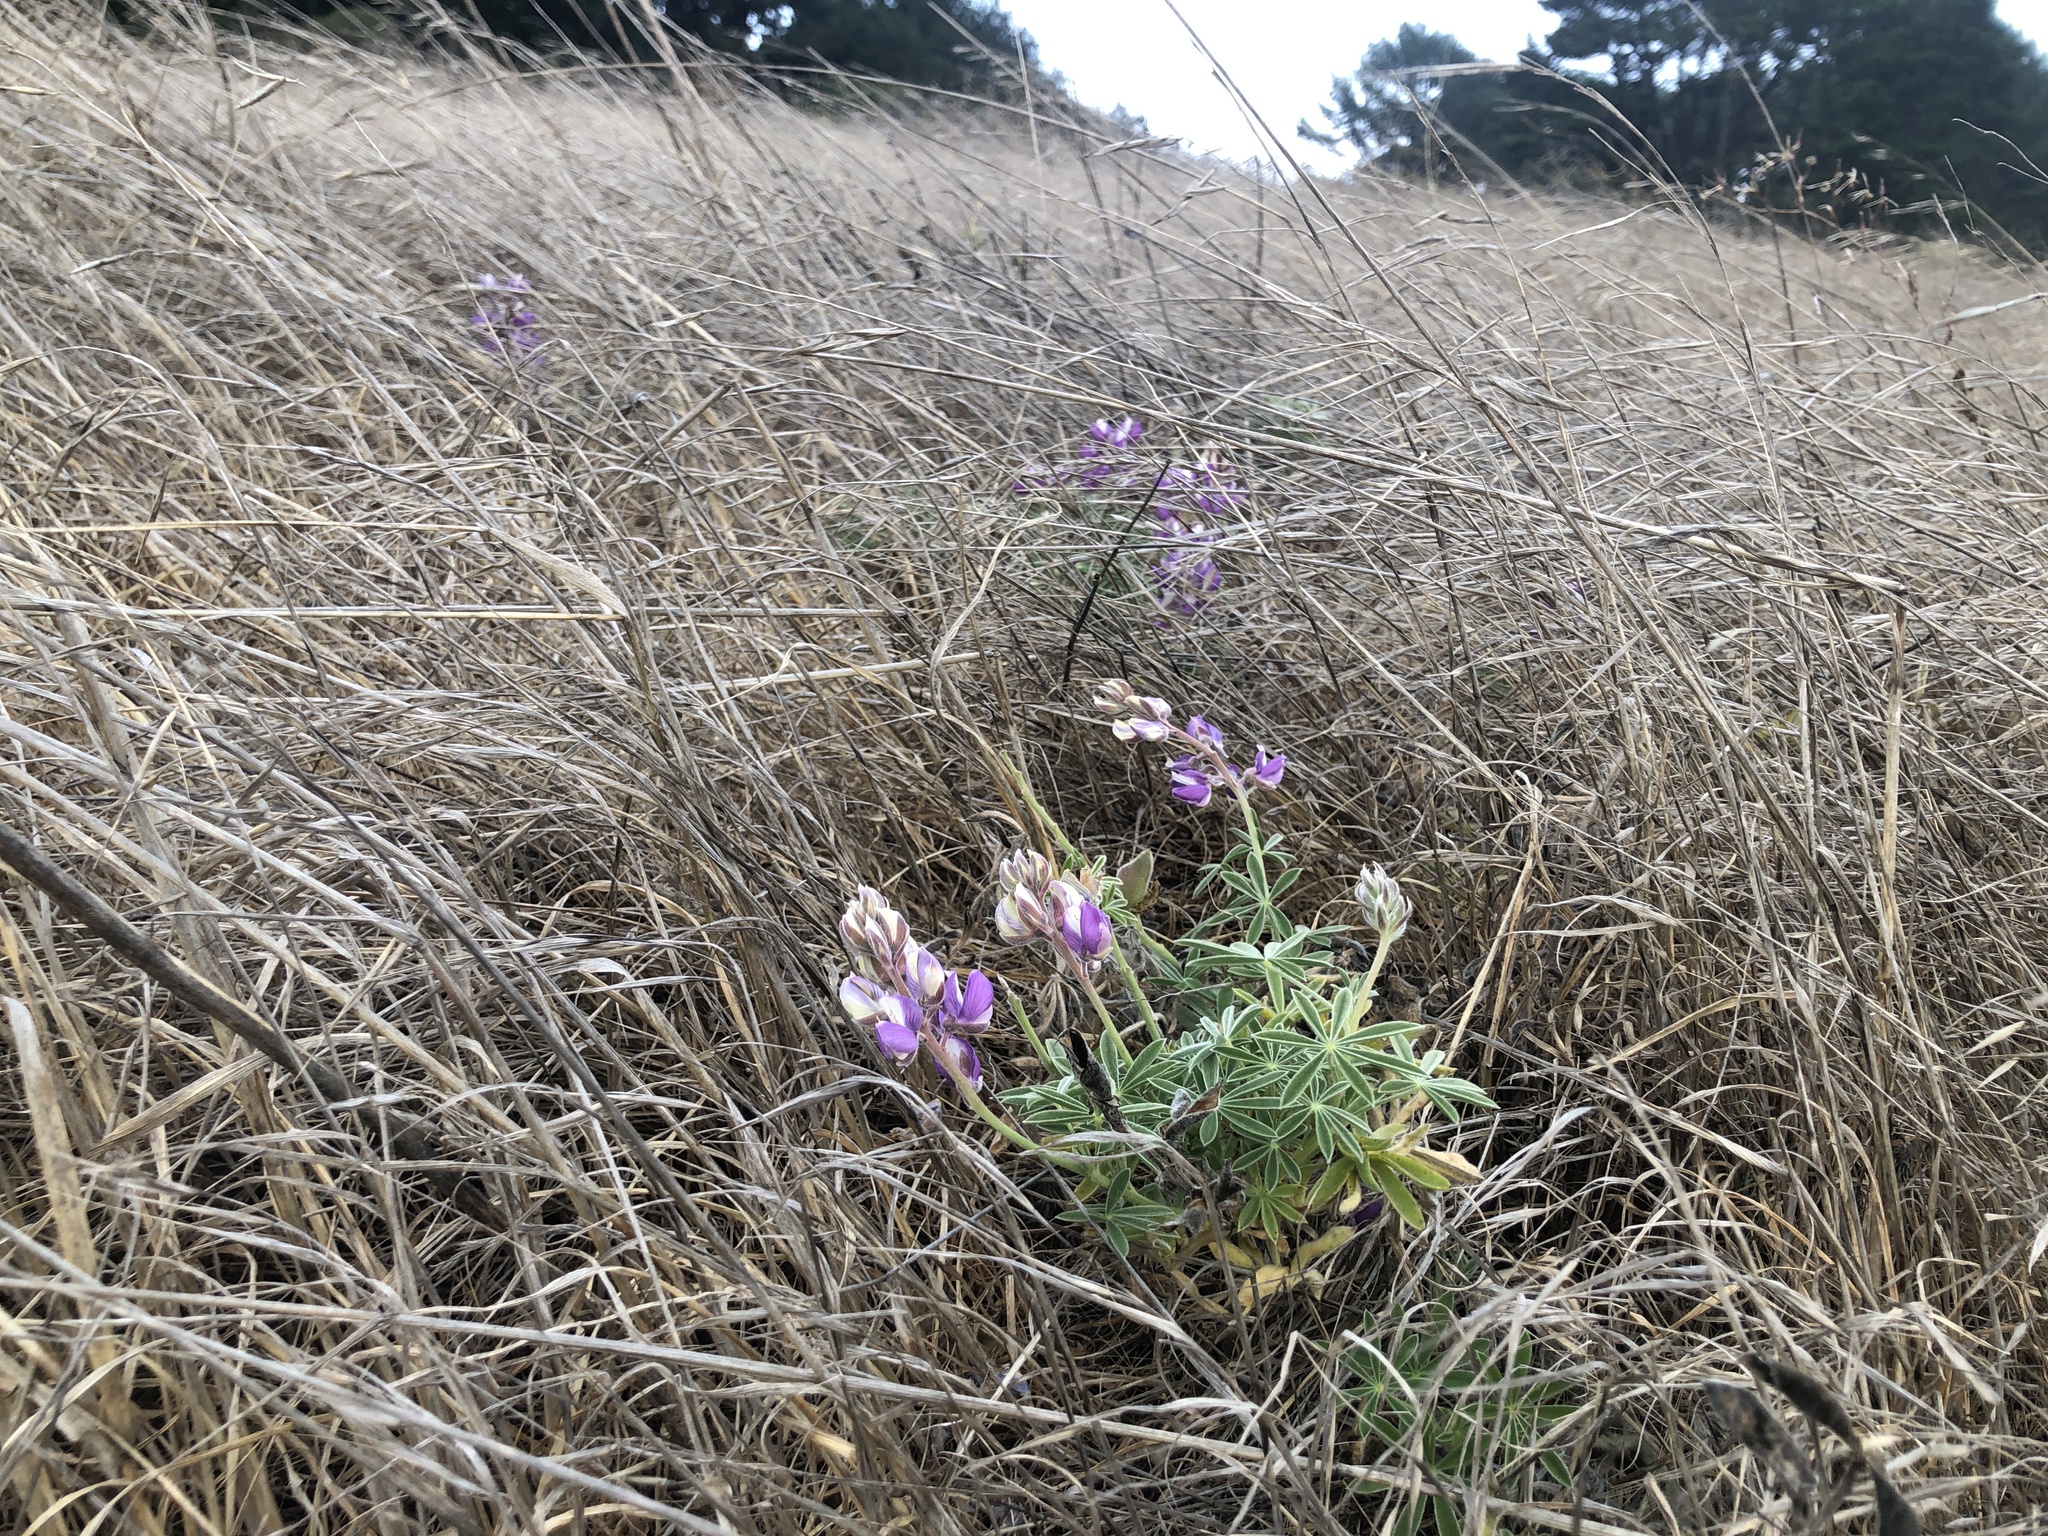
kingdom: Plantae
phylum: Tracheophyta
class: Magnoliopsida
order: Fabales
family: Fabaceae
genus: Lupinus
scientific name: Lupinus formosus
